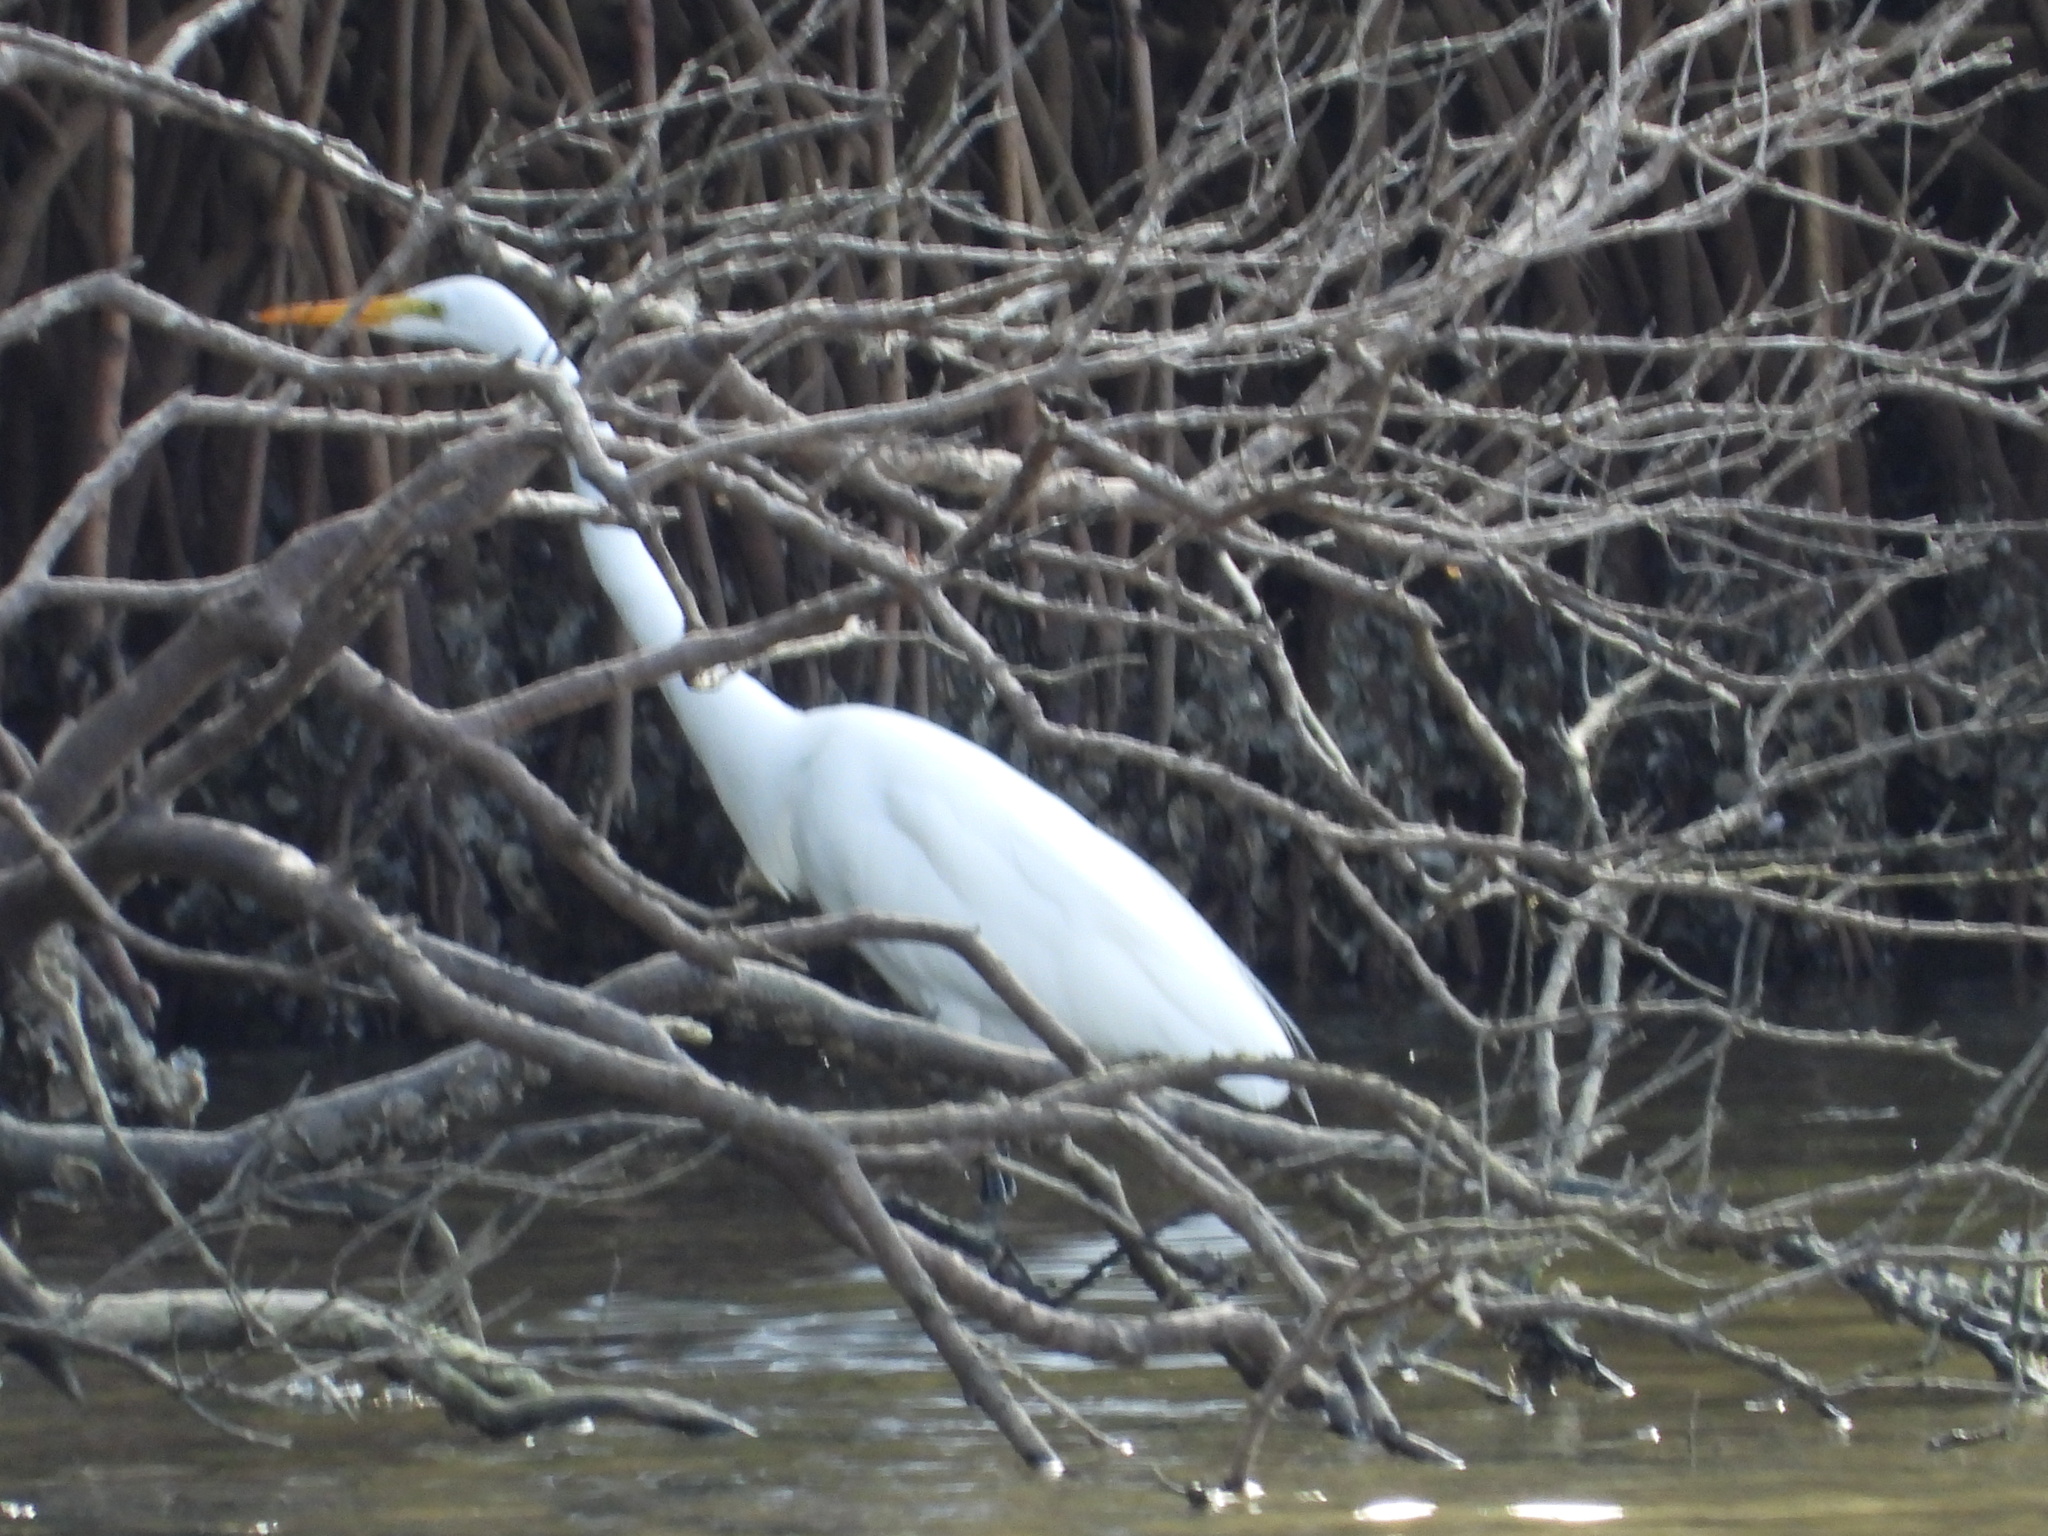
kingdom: Animalia
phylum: Chordata
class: Aves
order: Pelecaniformes
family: Ardeidae
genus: Ardea
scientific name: Ardea alba
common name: Great egret
